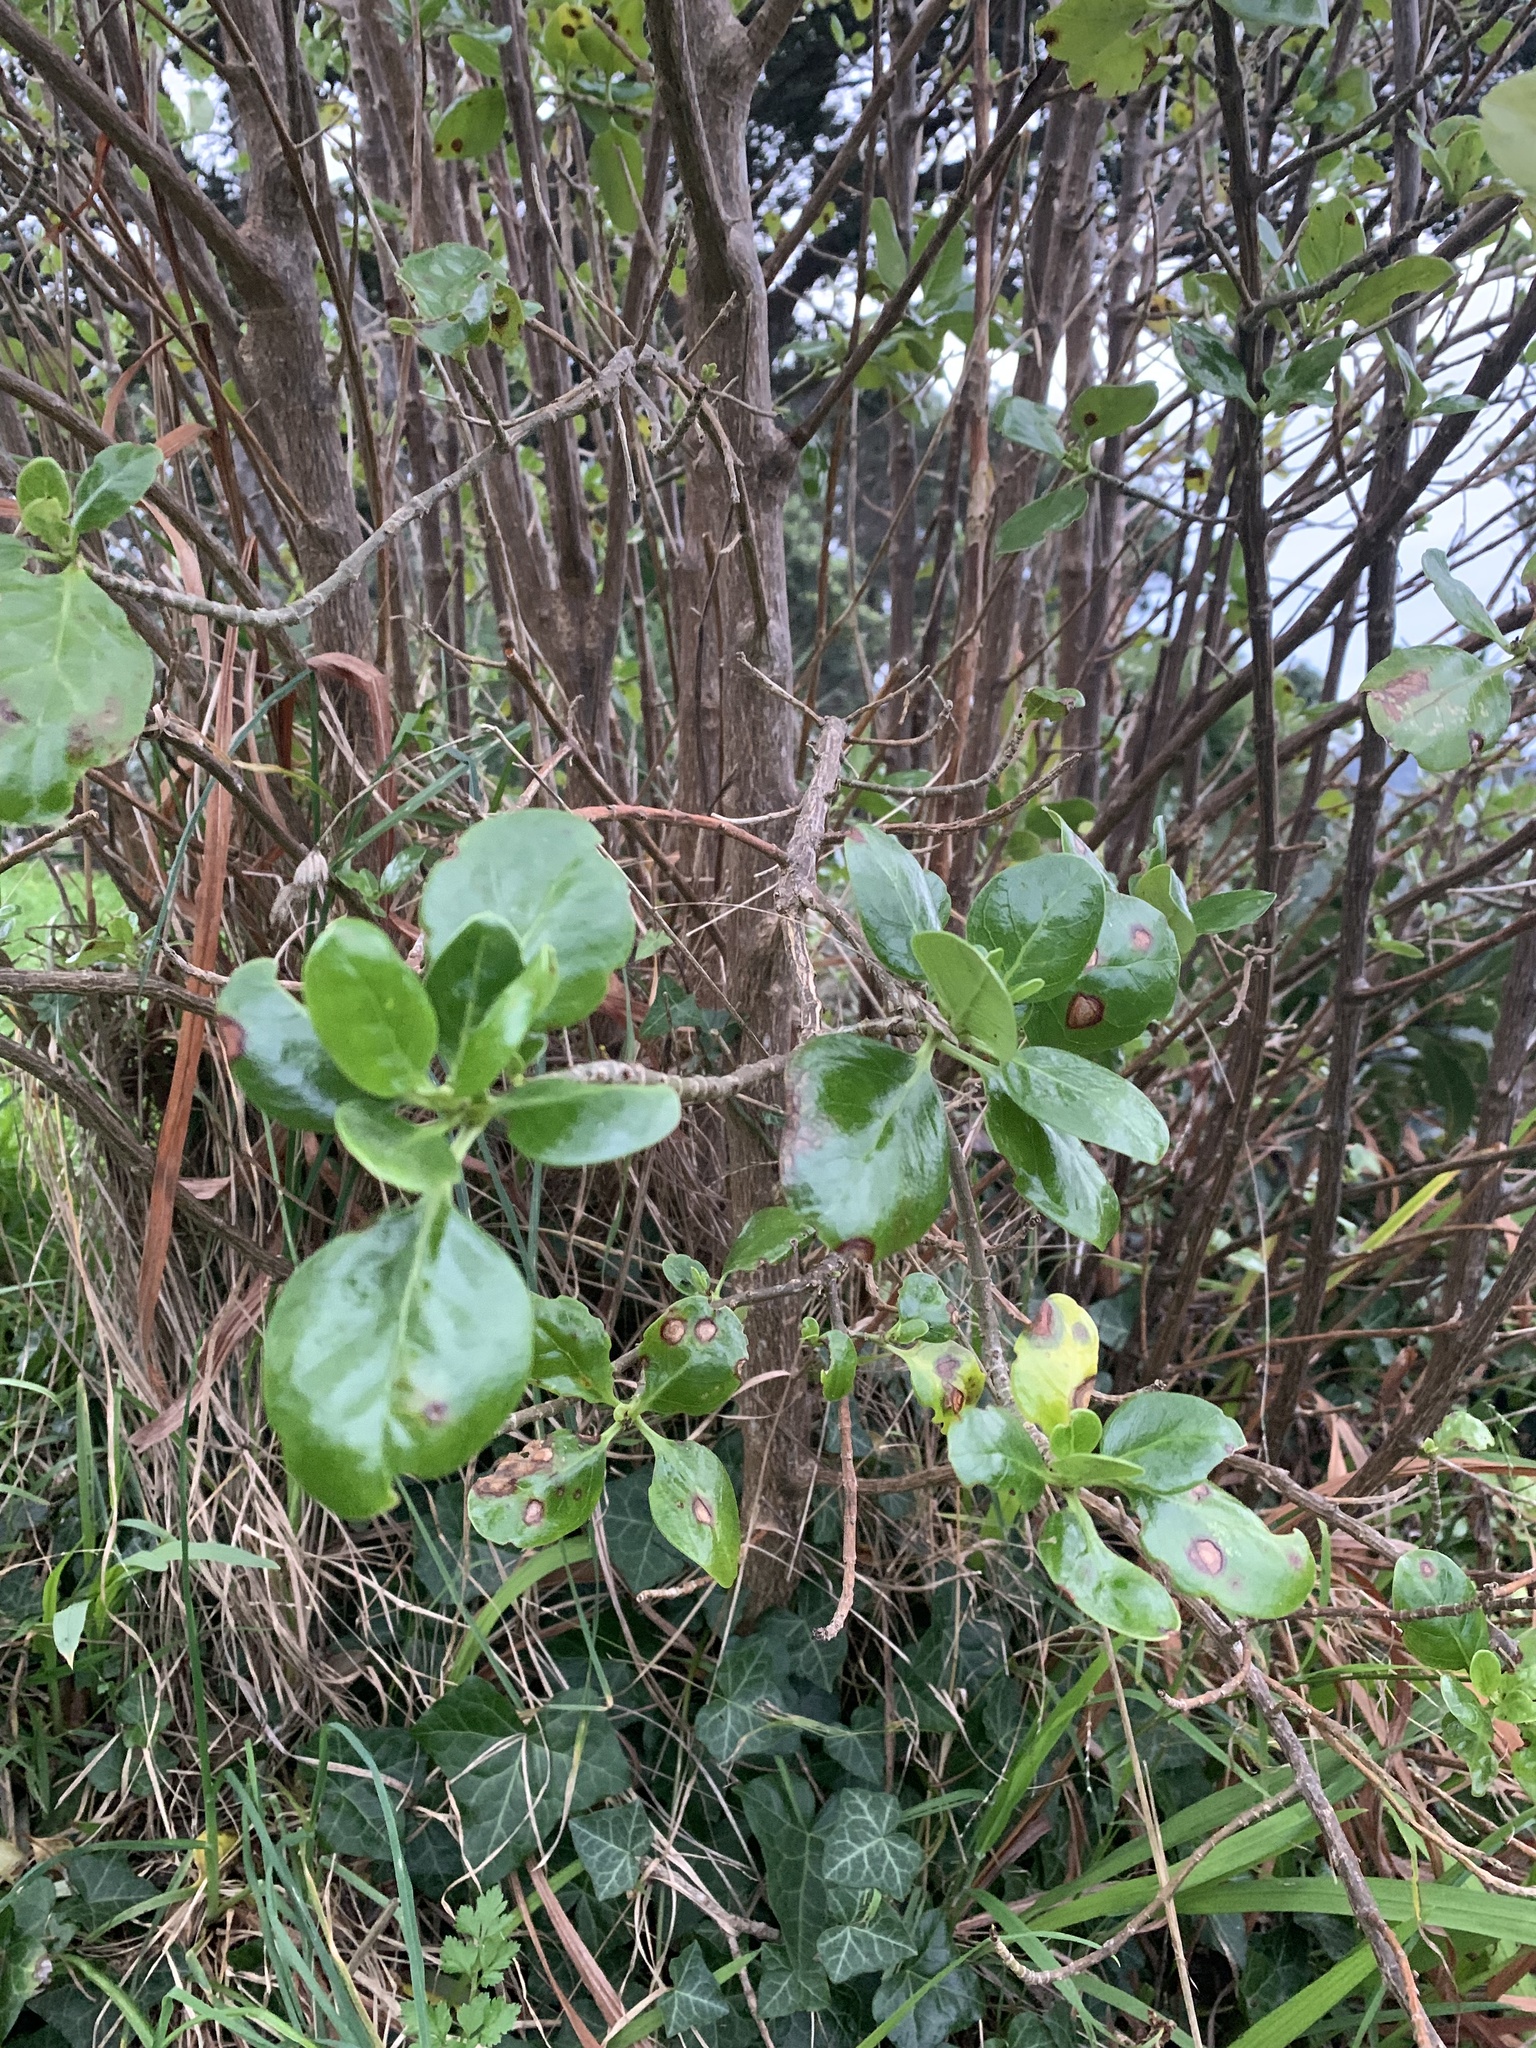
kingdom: Plantae
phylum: Tracheophyta
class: Magnoliopsida
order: Gentianales
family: Rubiaceae
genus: Coprosma
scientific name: Coprosma repens
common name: Tree bedstraw
